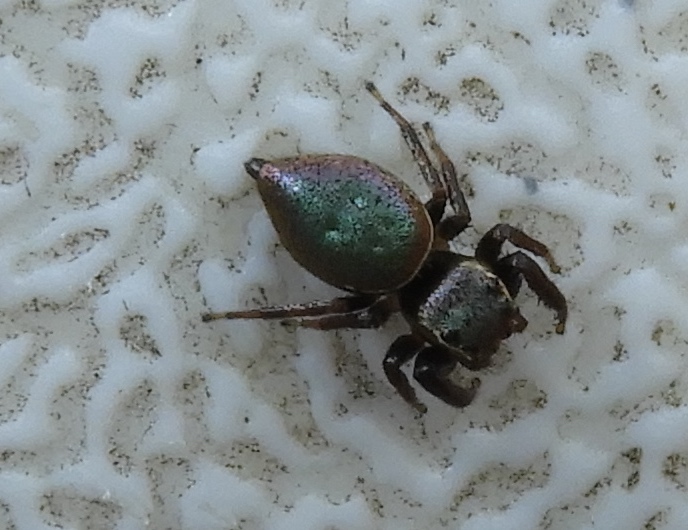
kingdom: Animalia
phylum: Arthropoda
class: Arachnida
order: Araneae
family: Salticidae
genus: Sassacus
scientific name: Sassacus vitis
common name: Jumping spiders
